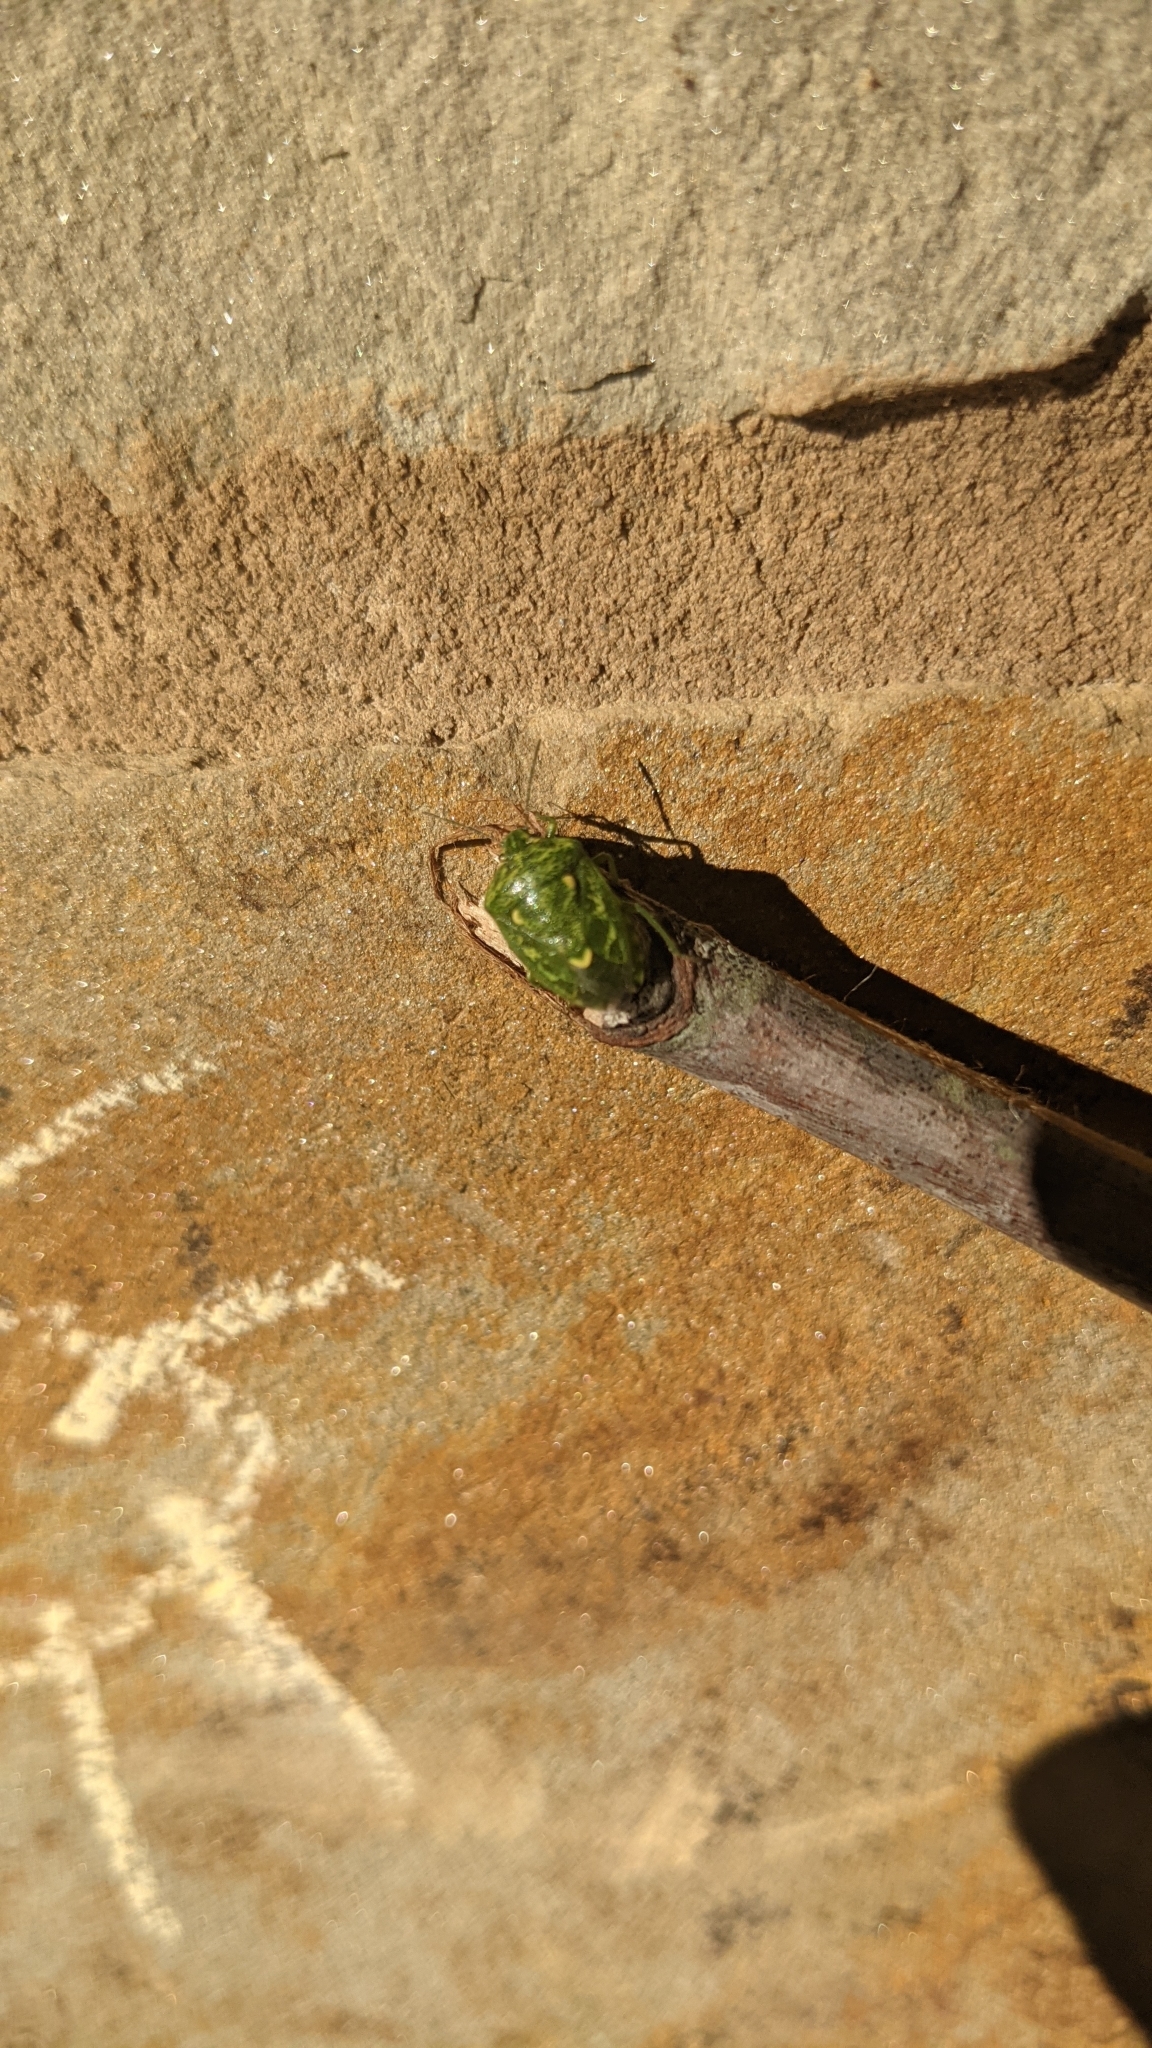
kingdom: Animalia
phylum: Arthropoda
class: Insecta
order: Hemiptera
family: Pentatomidae
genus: Banasa
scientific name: Banasa euchlora
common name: Cedar berry bug
